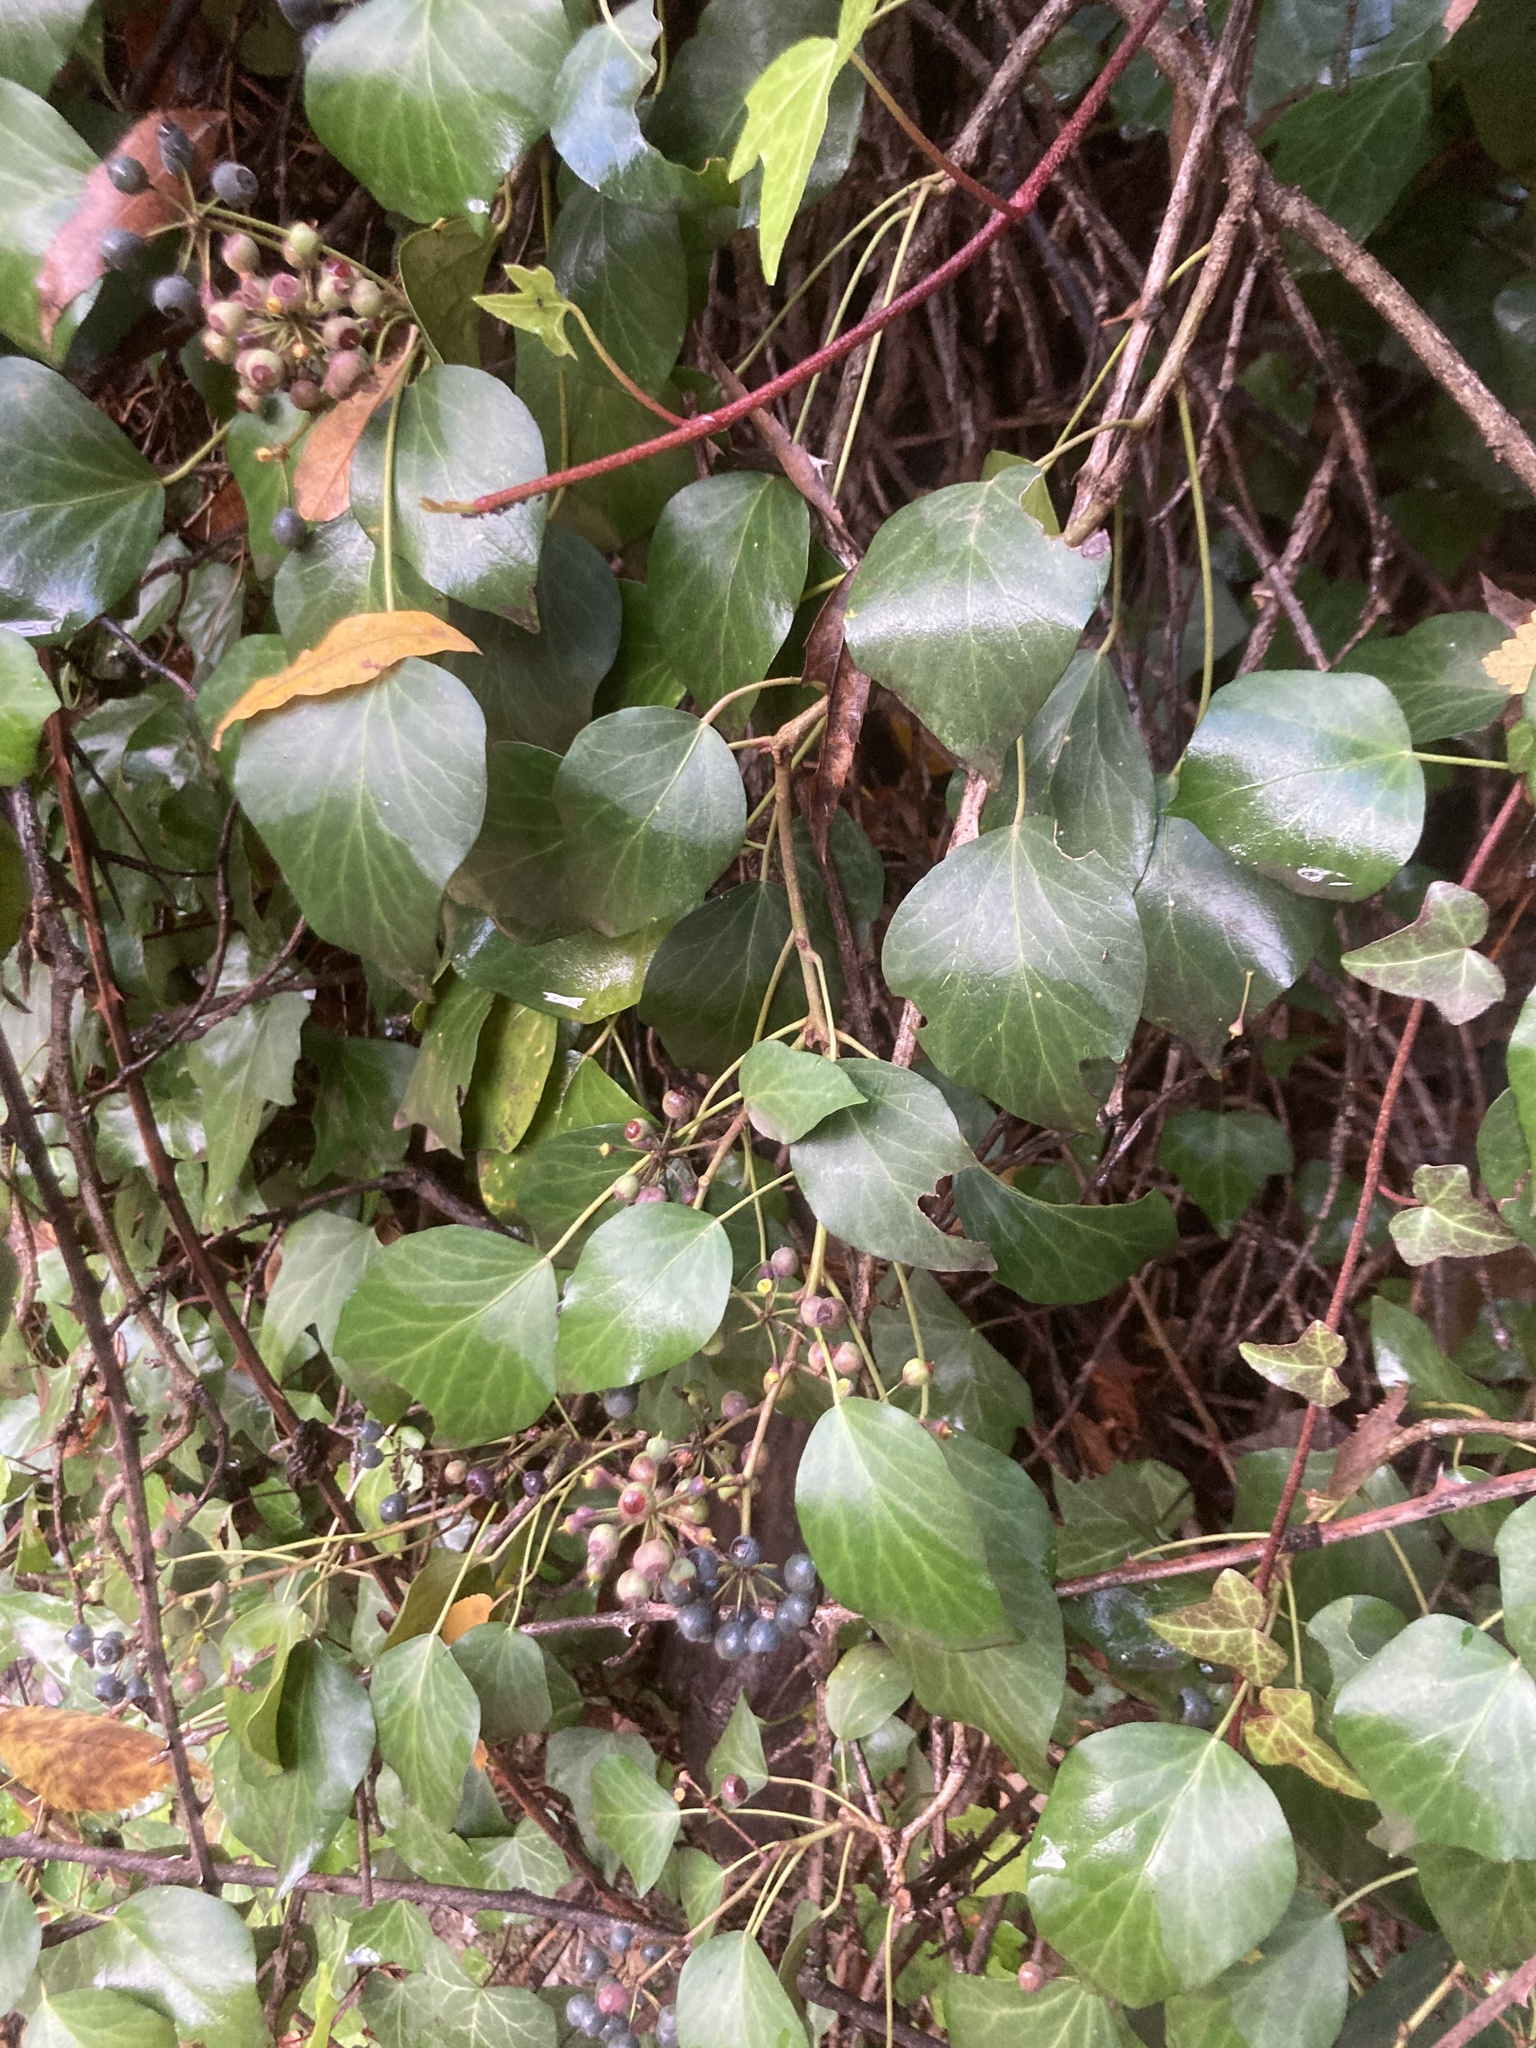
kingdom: Plantae
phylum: Tracheophyta
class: Magnoliopsida
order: Apiales
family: Araliaceae
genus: Hedera
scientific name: Hedera helix
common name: Ivy
